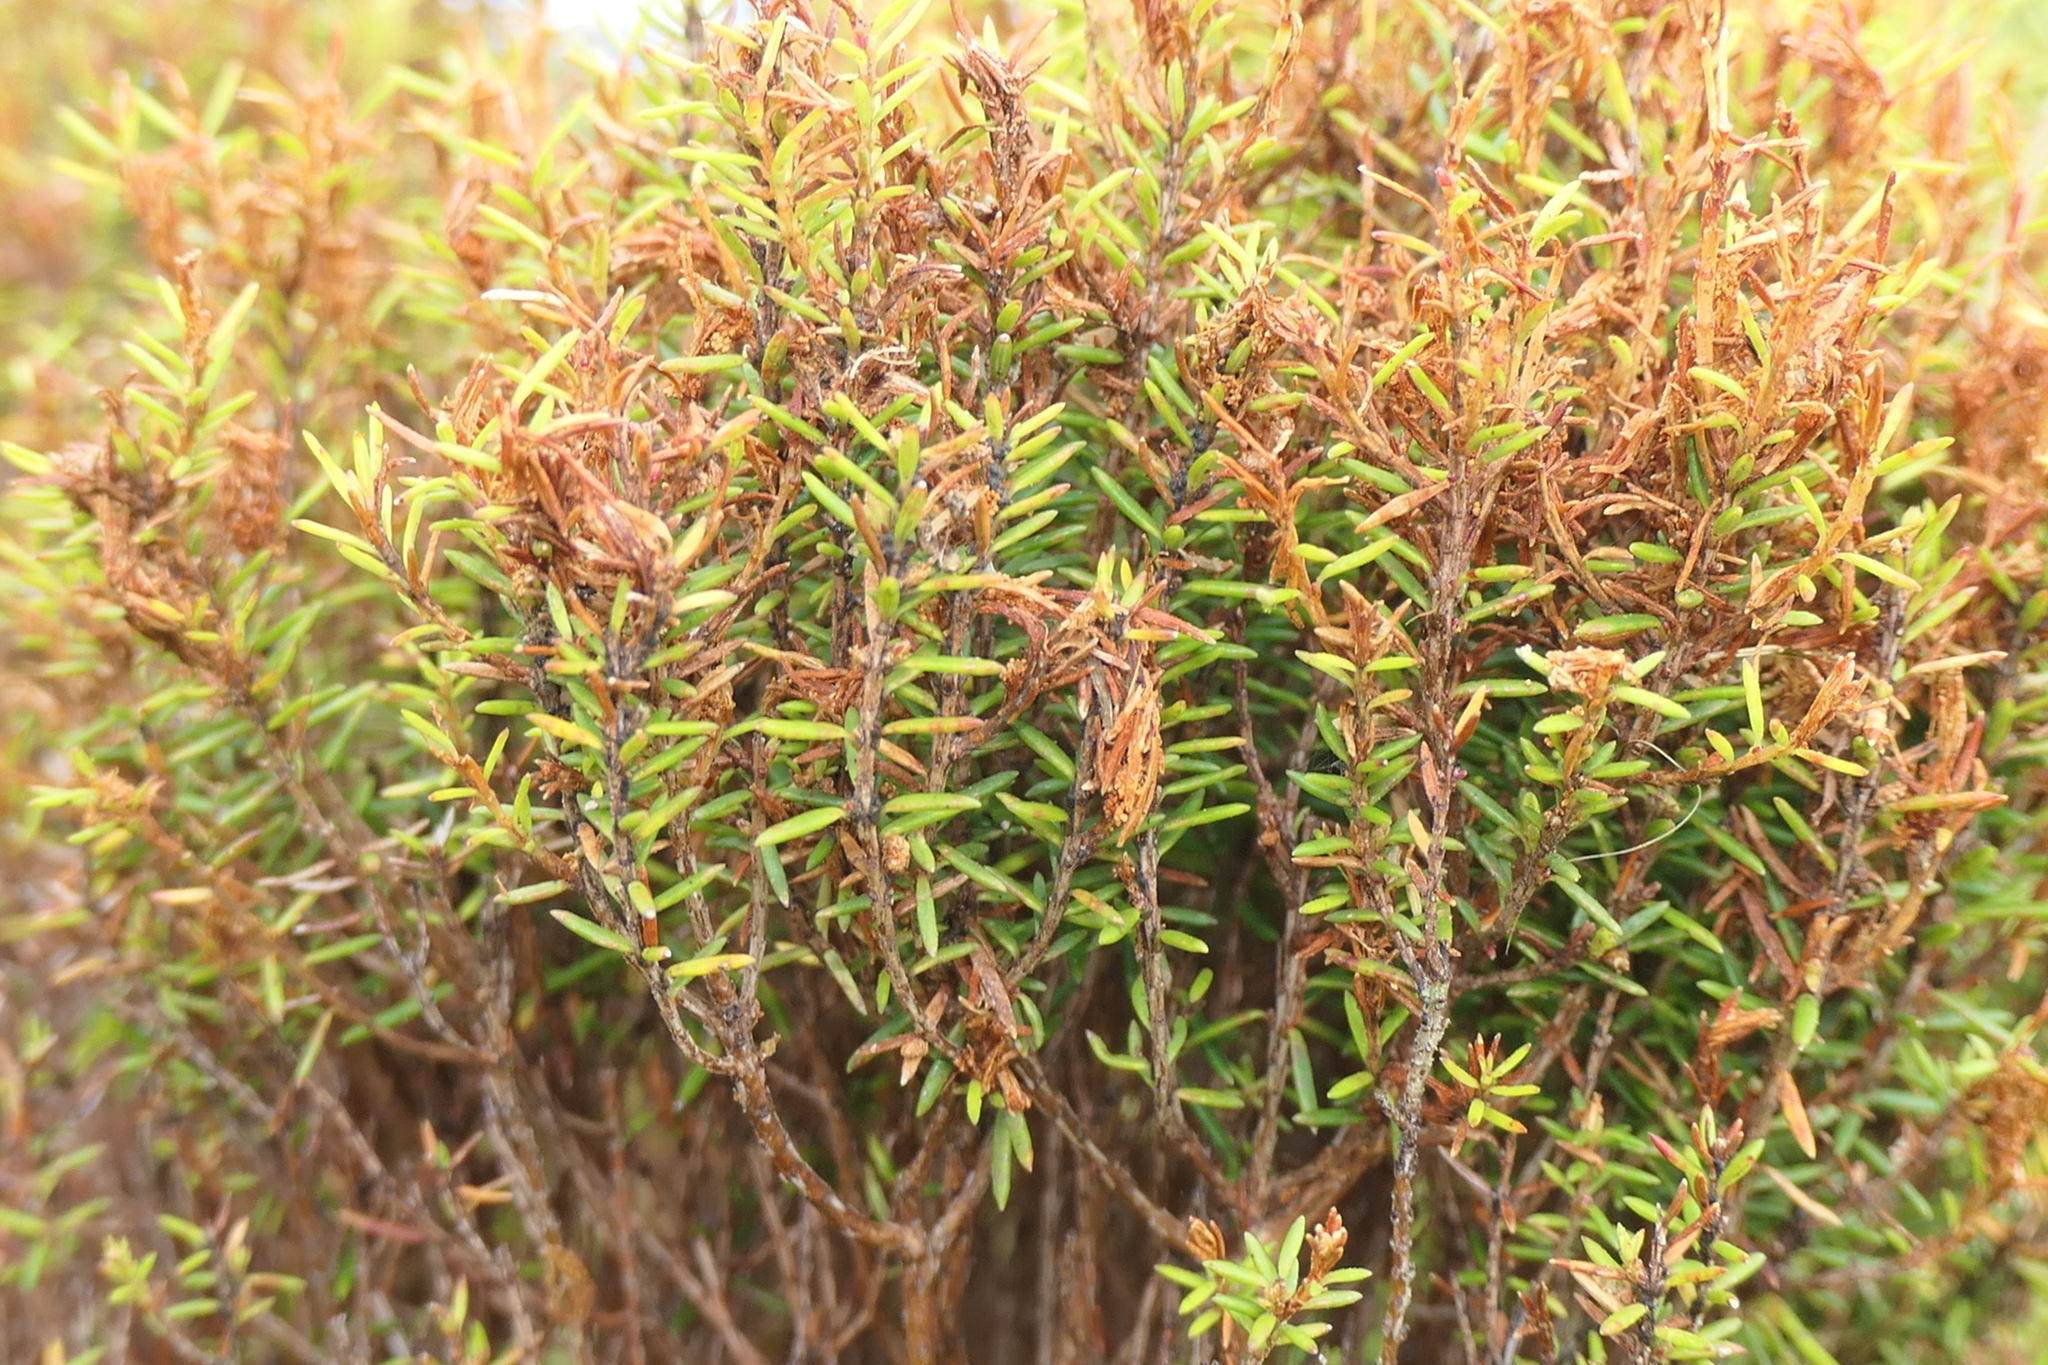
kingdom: Plantae
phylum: Tracheophyta
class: Magnoliopsida
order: Ericales
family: Ericaceae
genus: Erica
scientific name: Erica azorica
